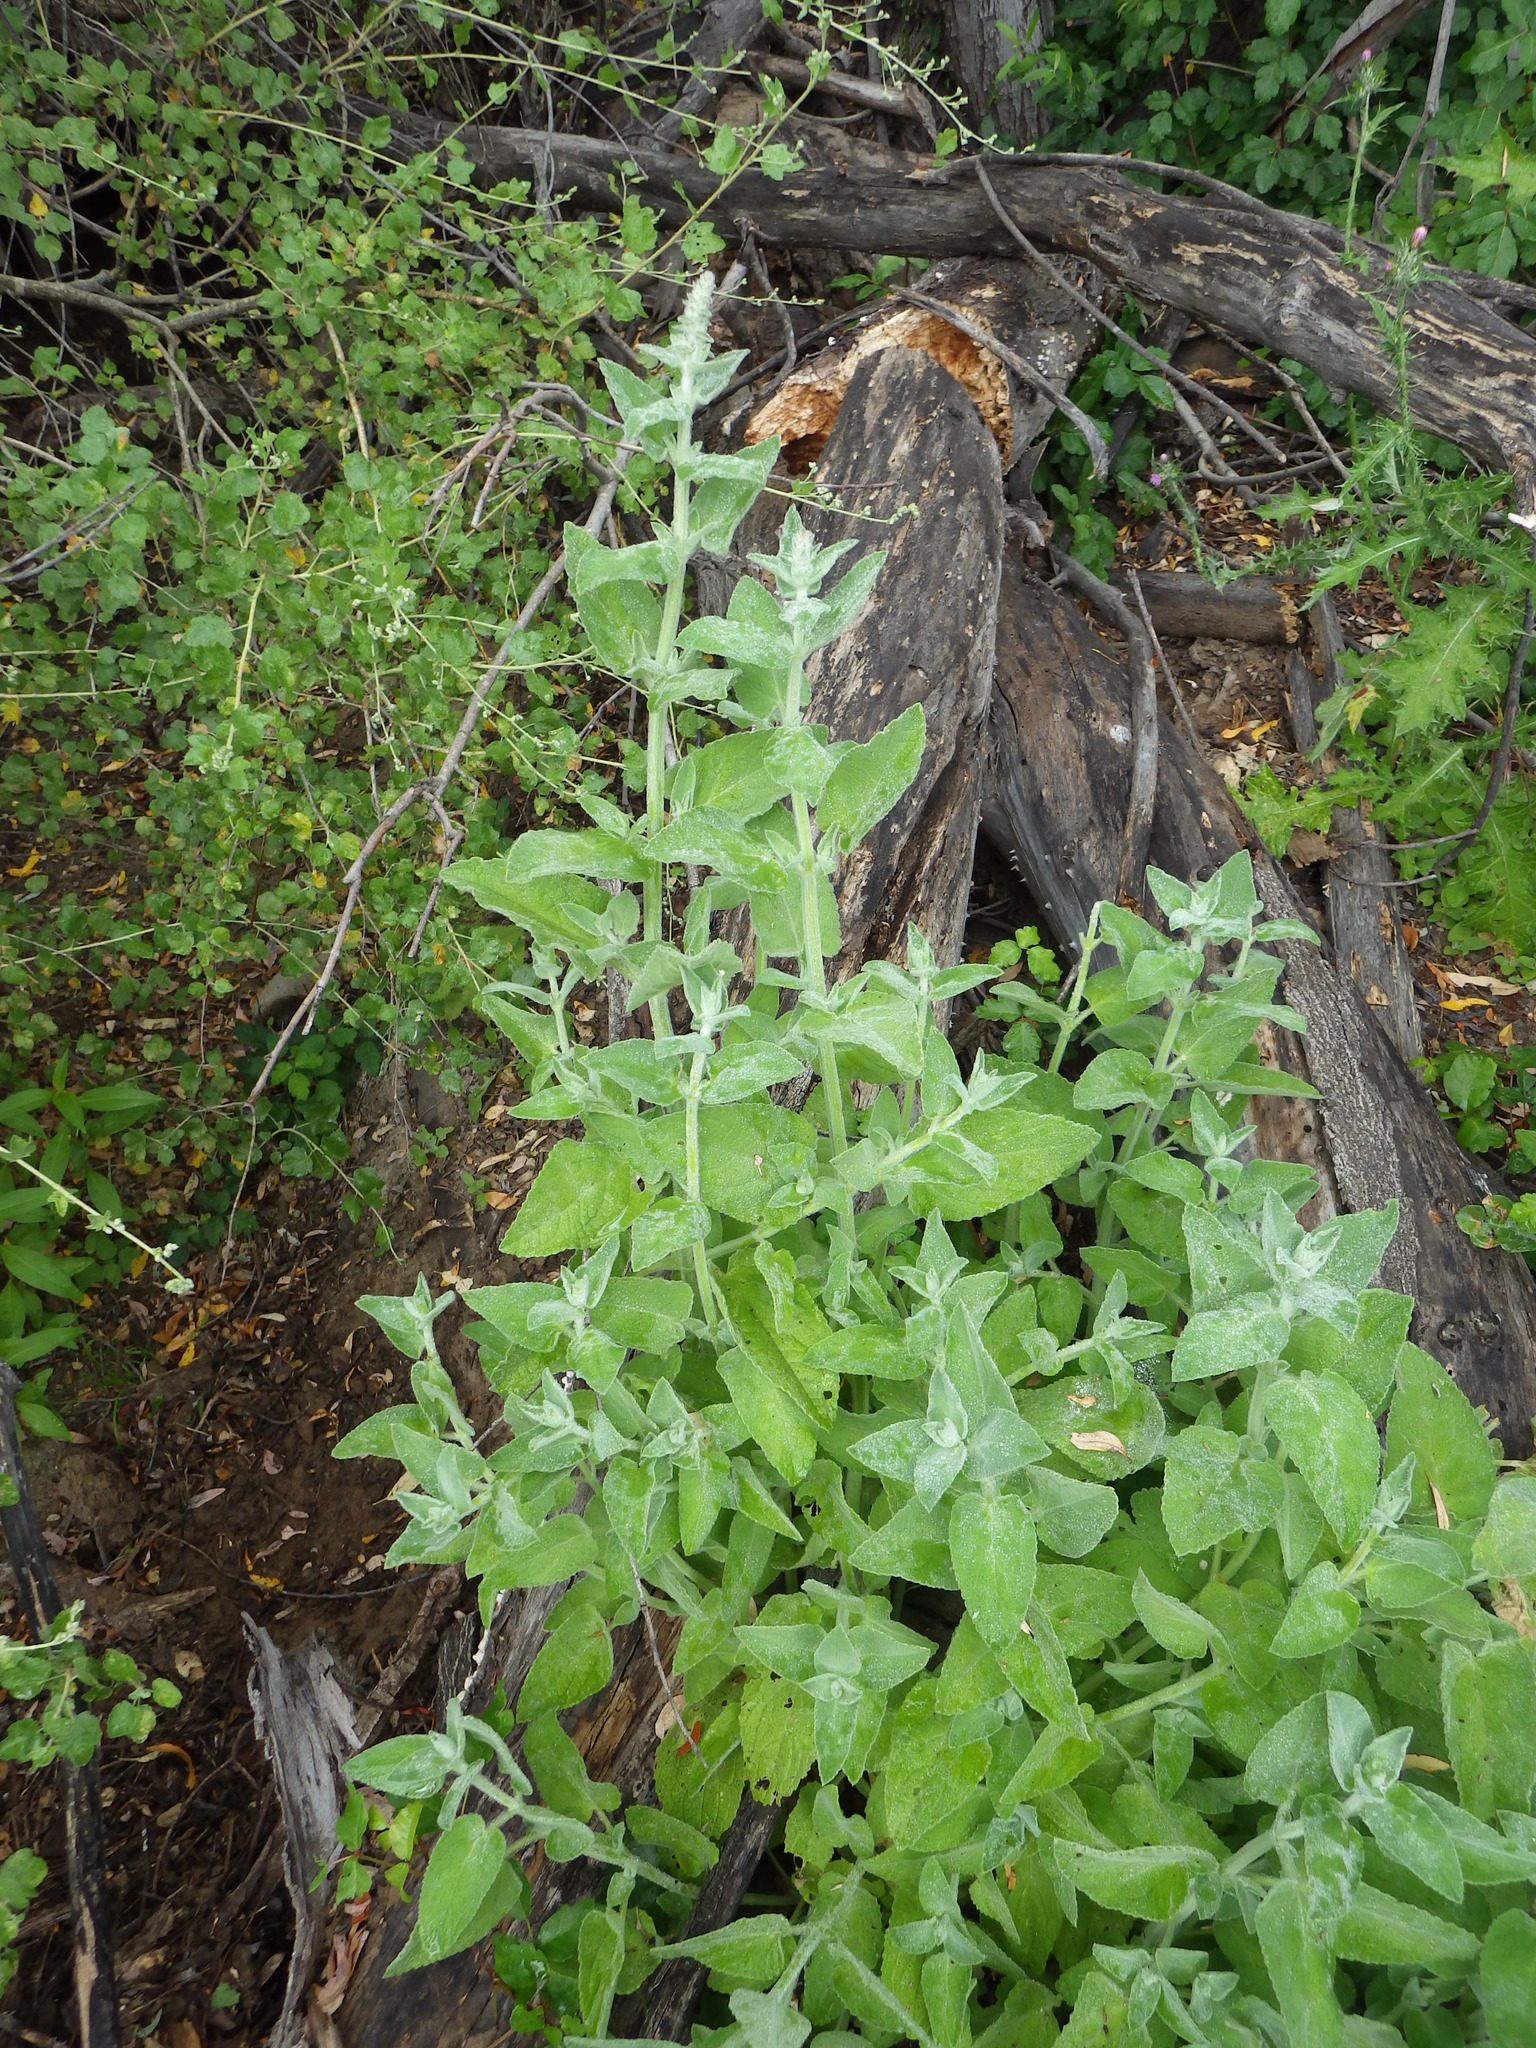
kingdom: Plantae
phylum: Tracheophyta
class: Magnoliopsida
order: Lamiales
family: Lamiaceae
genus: Stachys
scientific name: Stachys albens
